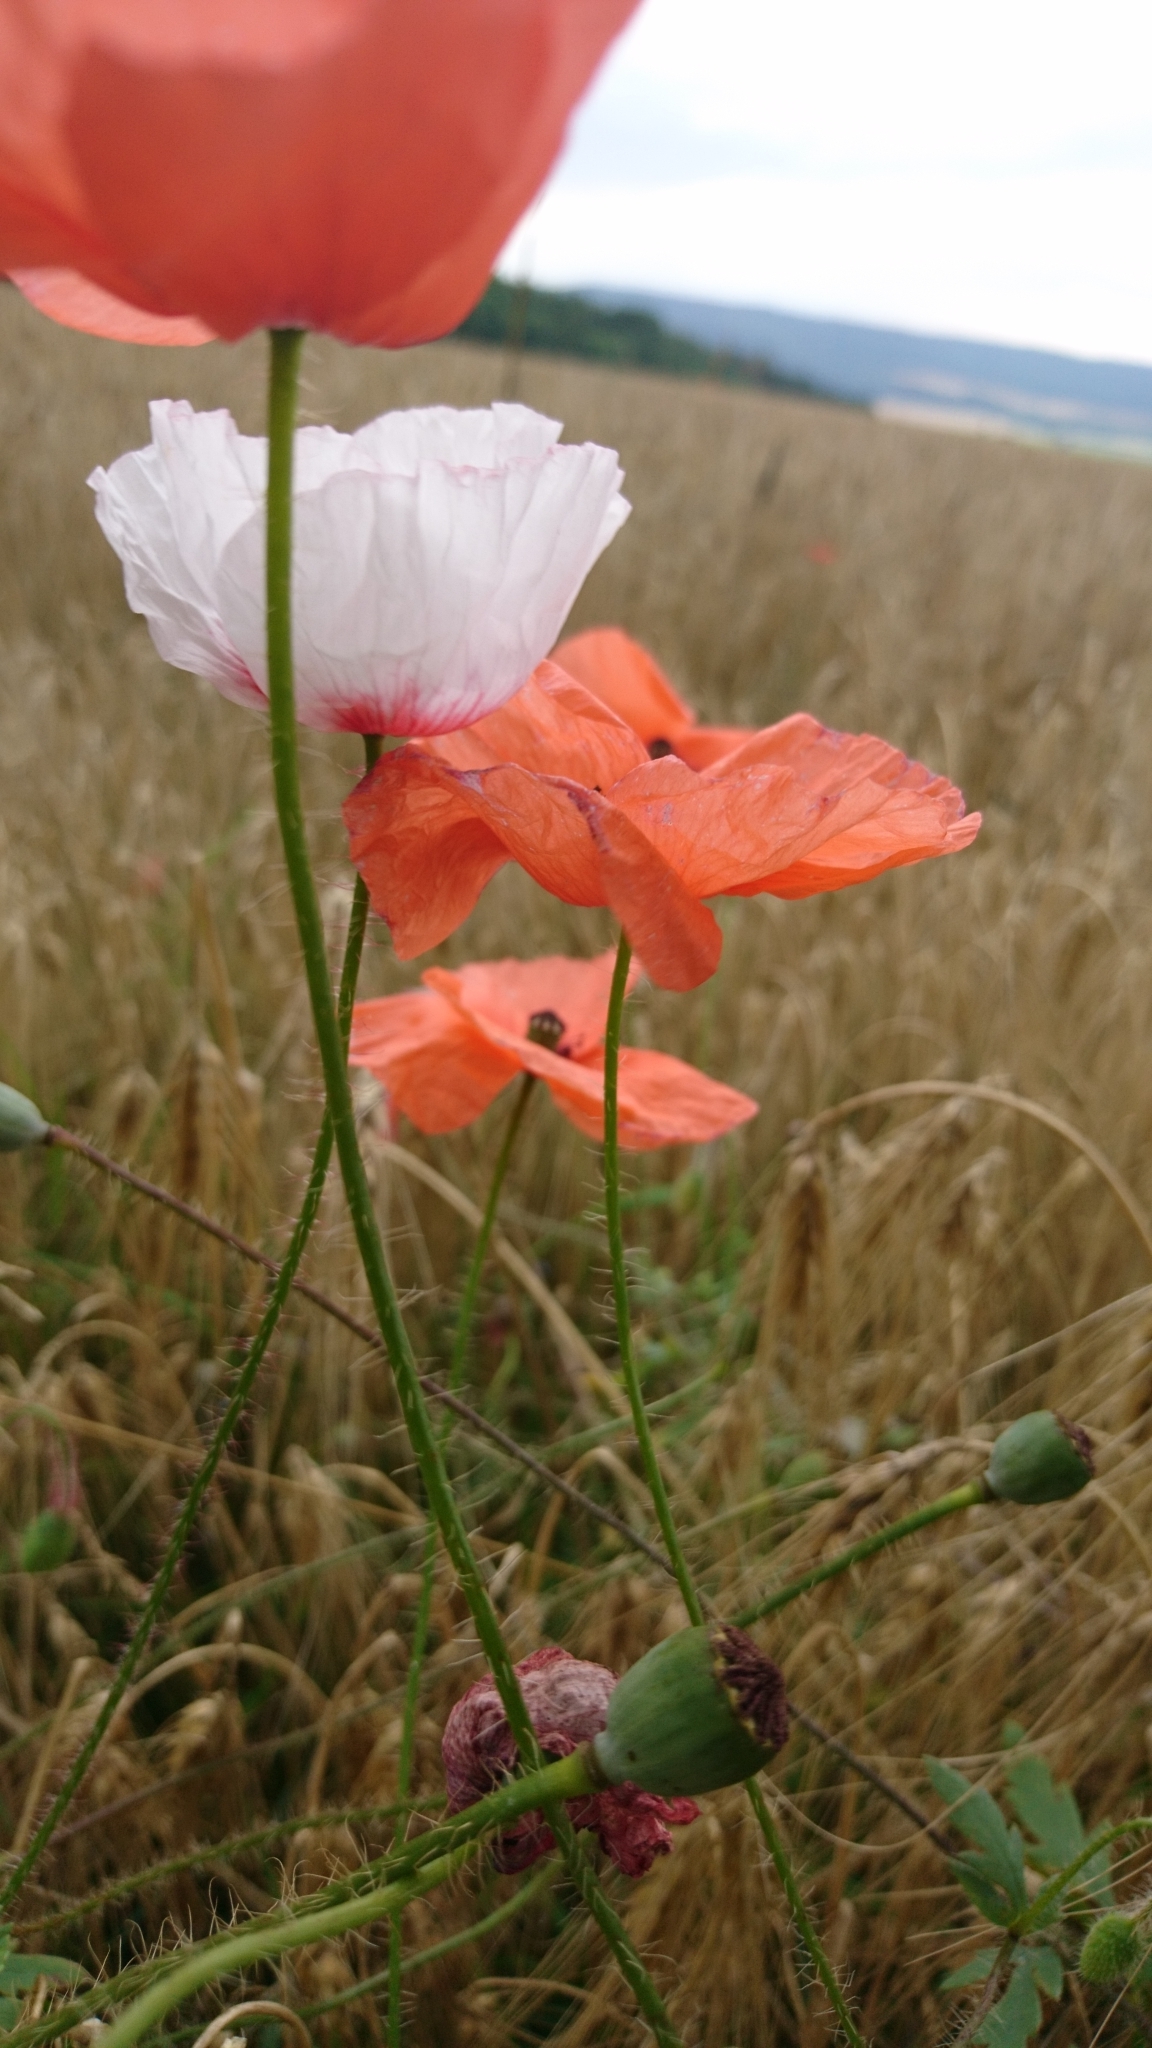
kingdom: Plantae
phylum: Tracheophyta
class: Magnoliopsida
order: Ranunculales
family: Papaveraceae
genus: Papaver
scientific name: Papaver rhoeas
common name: Corn poppy
